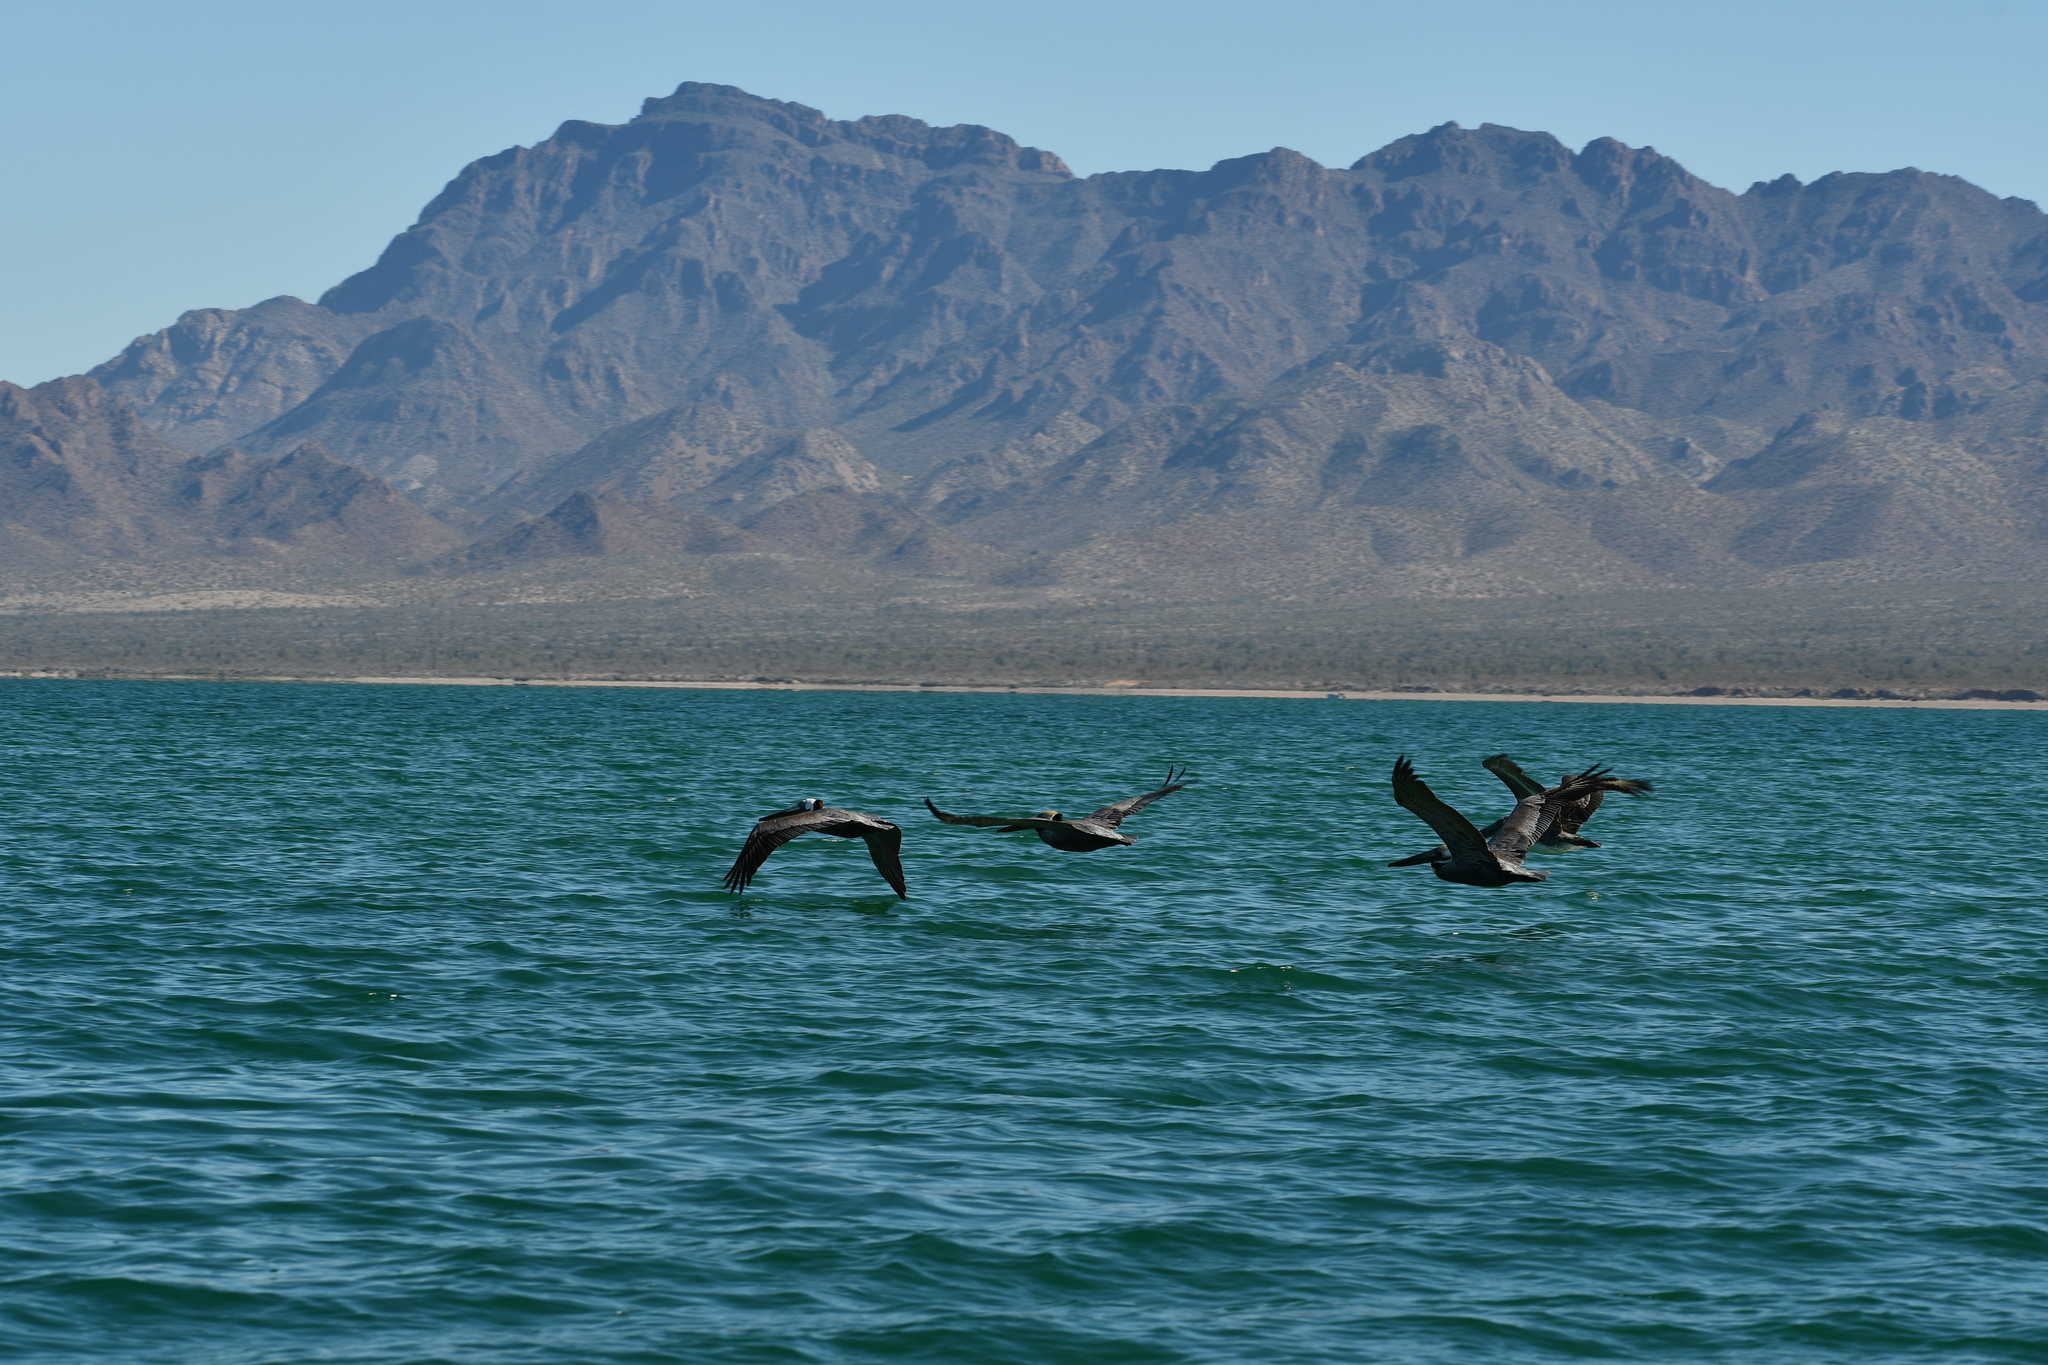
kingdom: Animalia
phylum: Chordata
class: Aves
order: Pelecaniformes
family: Pelecanidae
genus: Pelecanus
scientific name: Pelecanus occidentalis
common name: Brown pelican
